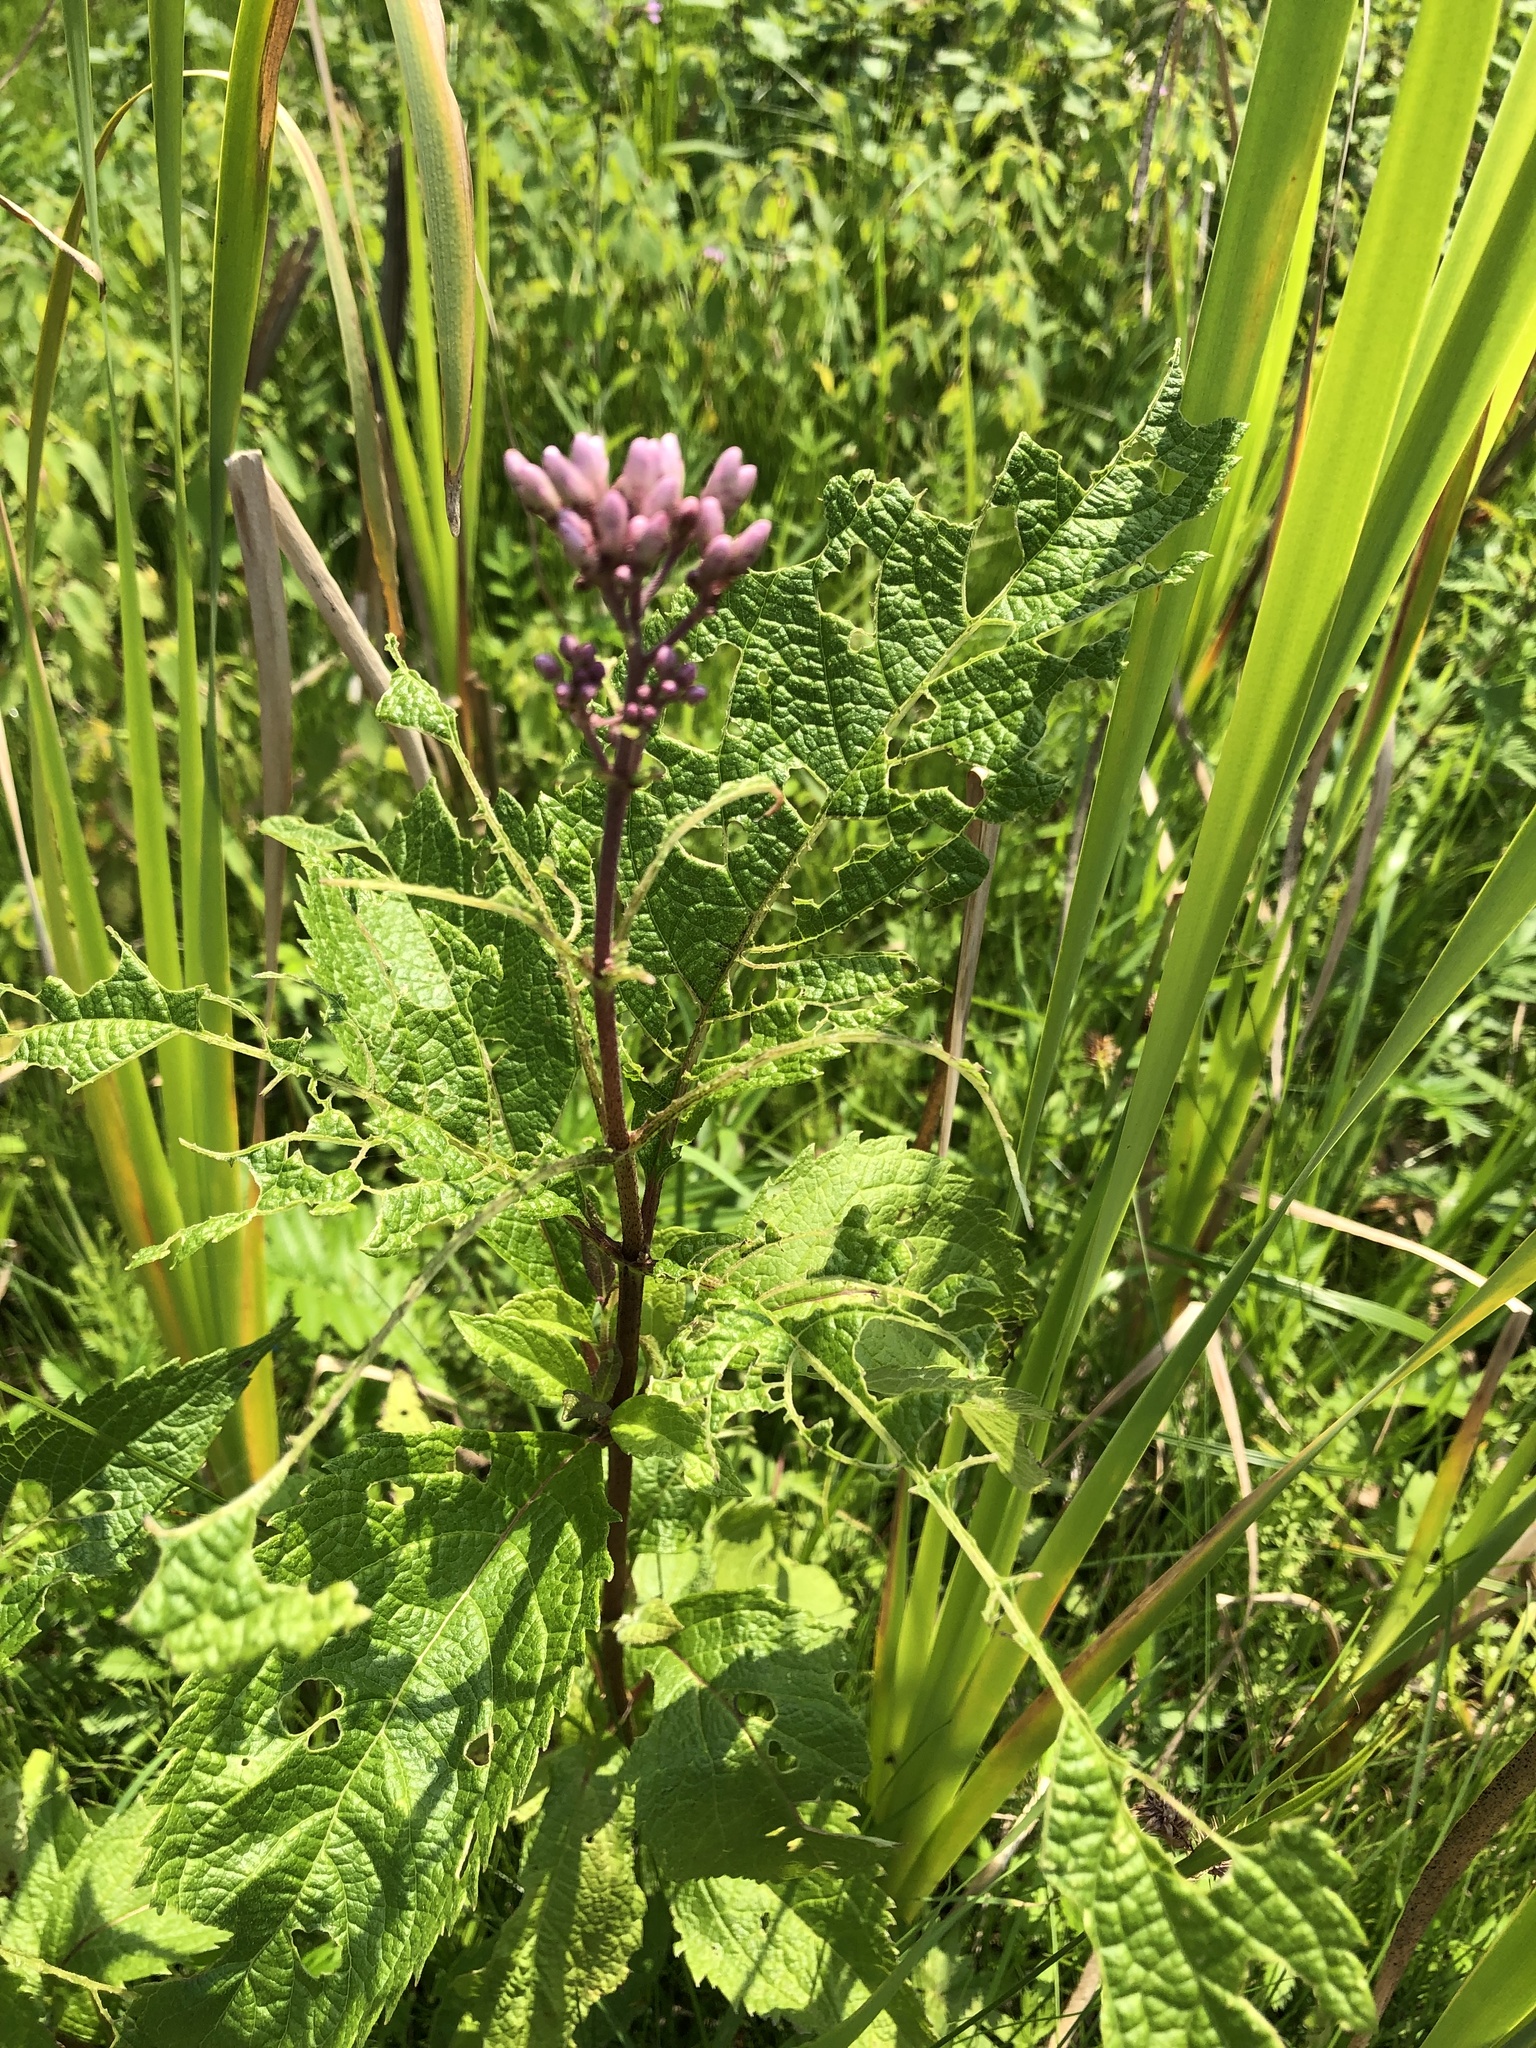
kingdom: Plantae
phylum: Tracheophyta
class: Magnoliopsida
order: Asterales
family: Asteraceae
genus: Eutrochium
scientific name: Eutrochium maculatum
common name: Spotted joe pye weed
